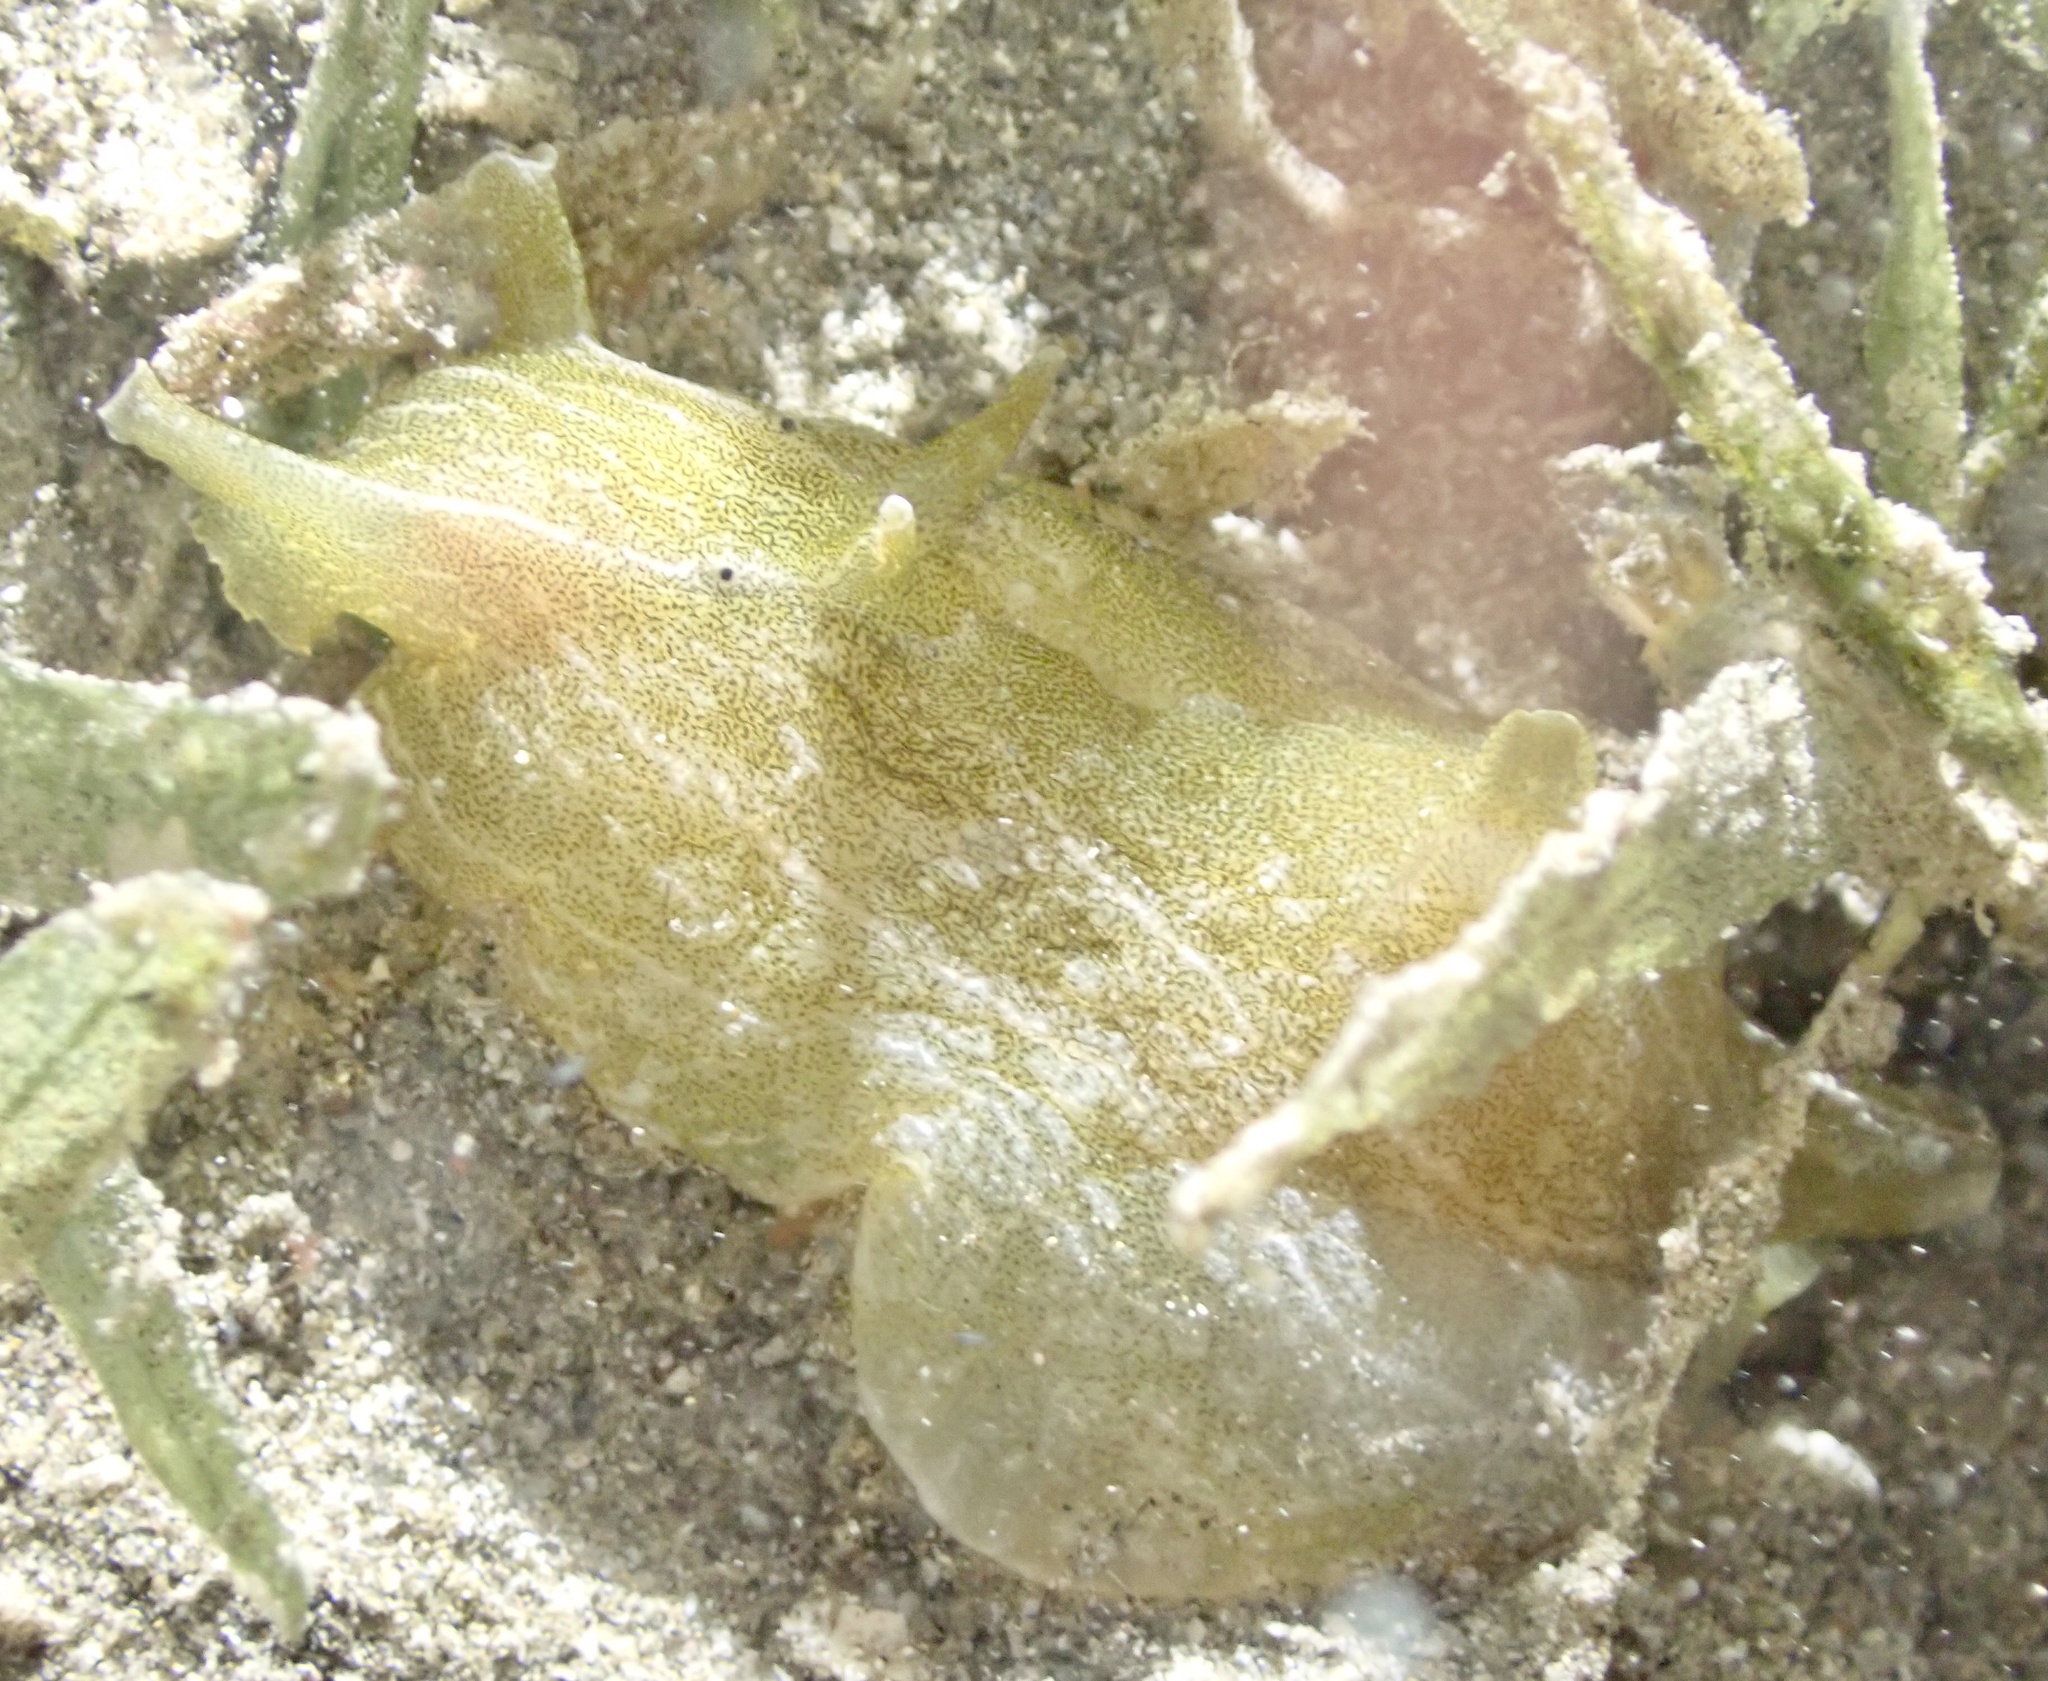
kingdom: Animalia
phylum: Mollusca
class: Gastropoda
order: Aplysiida
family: Aplysiidae
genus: Syphonota
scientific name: Syphonota geographica
